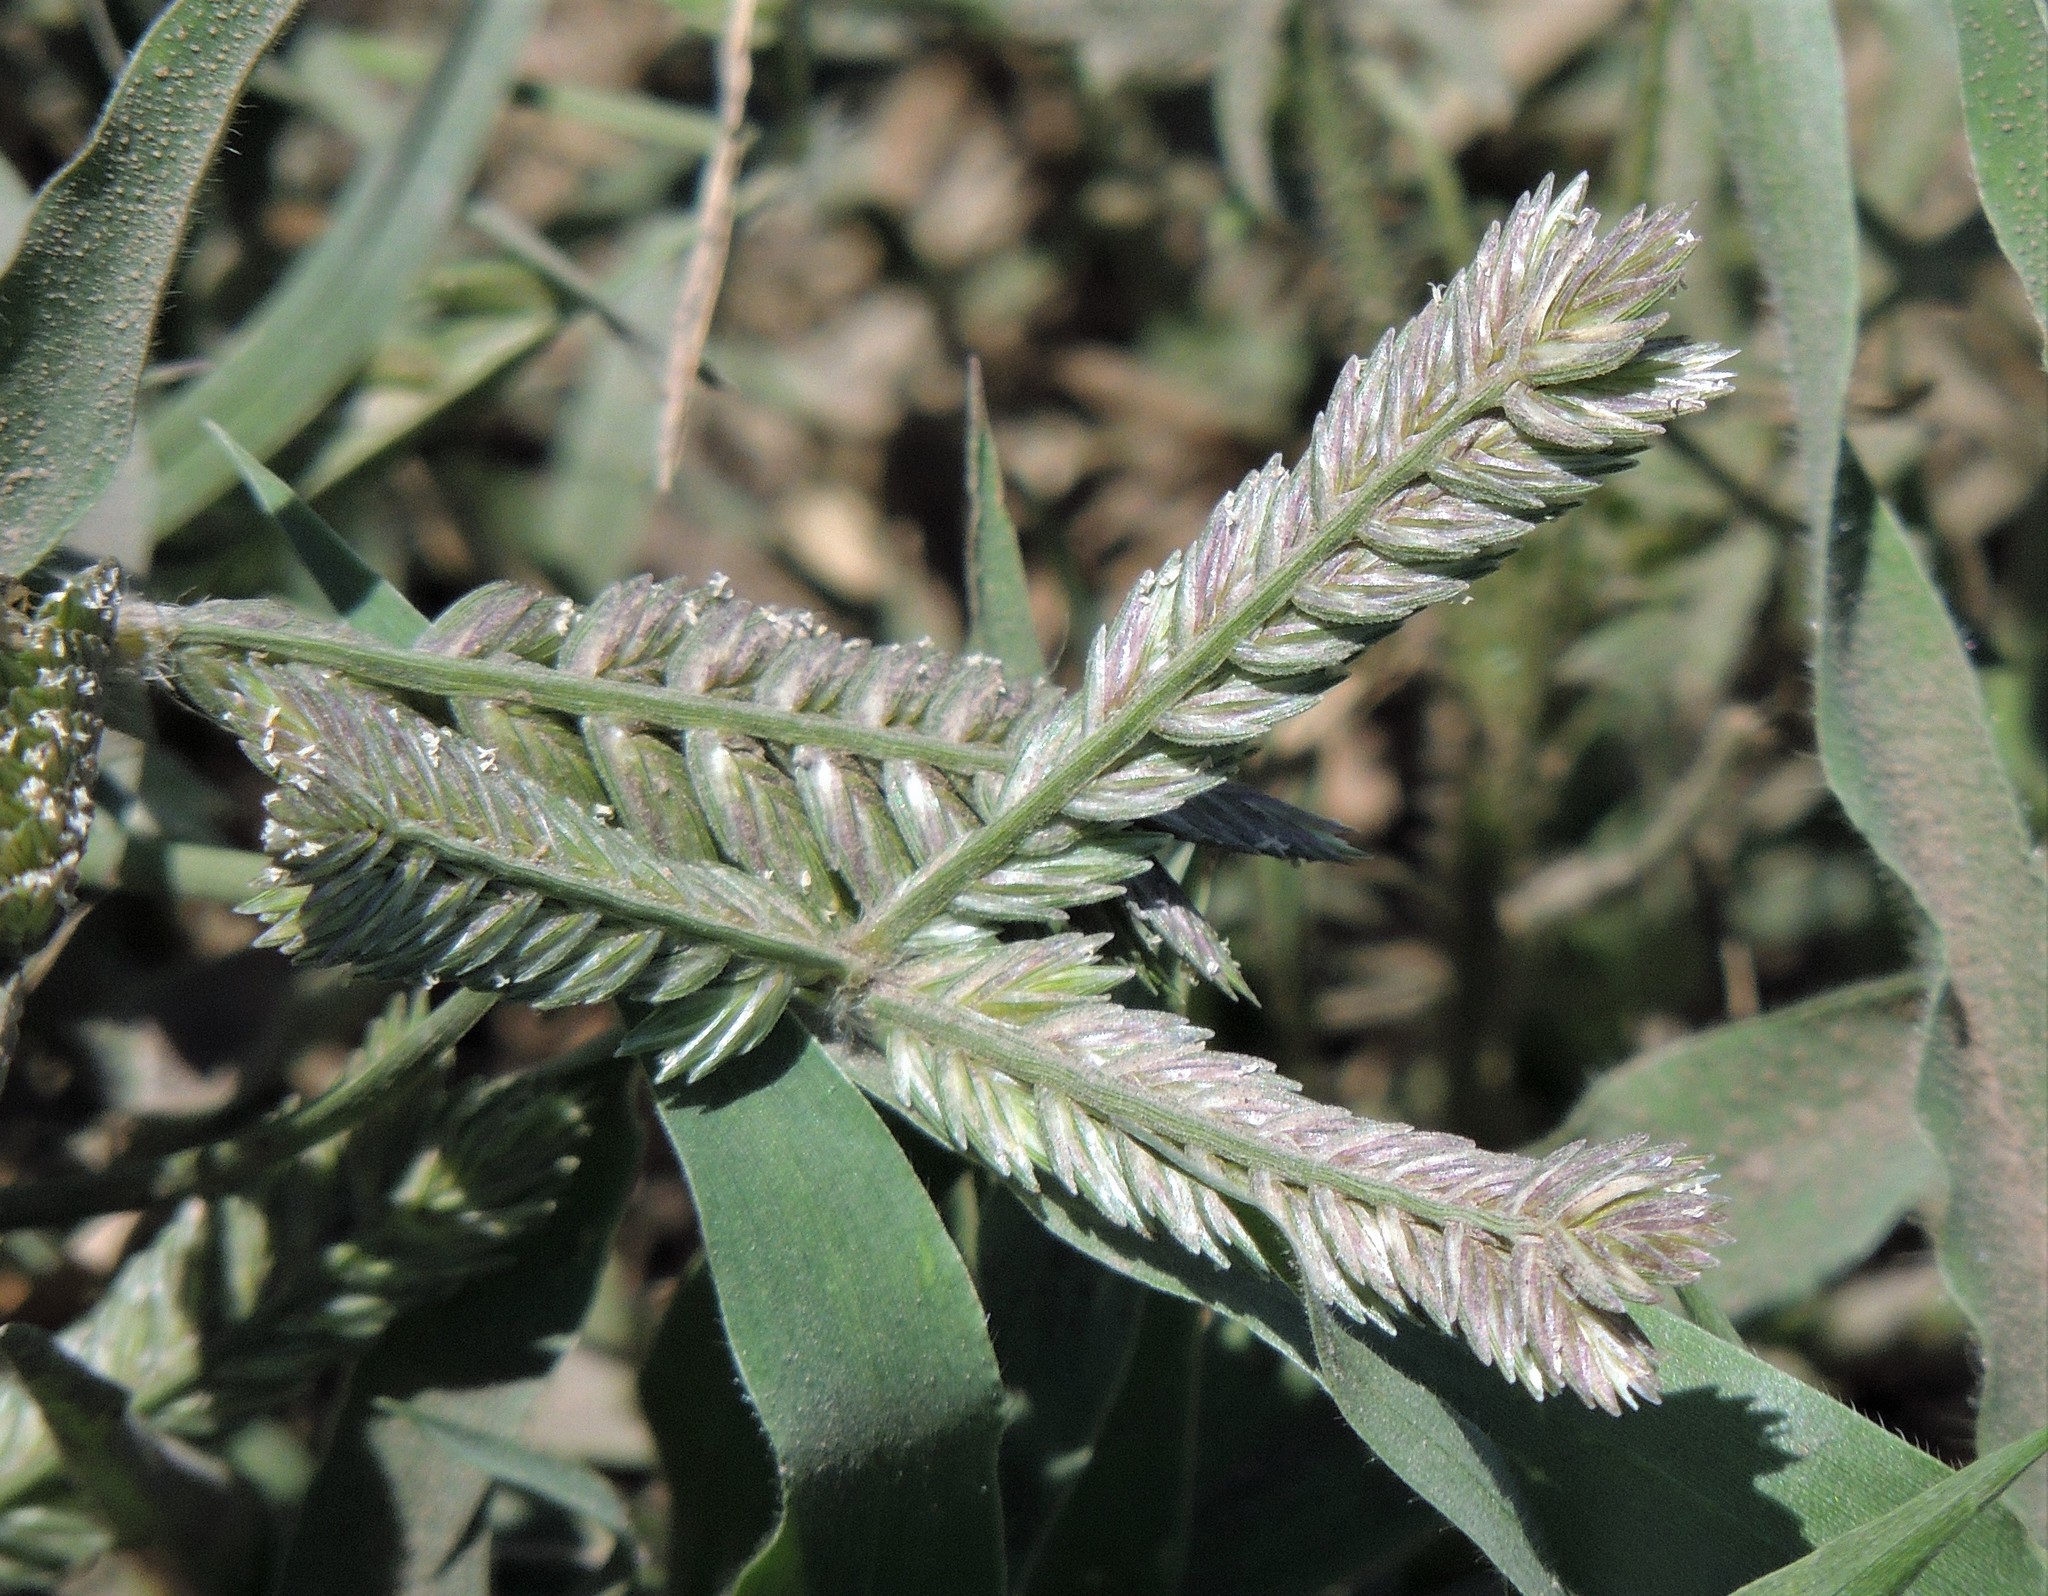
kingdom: Plantae
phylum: Tracheophyta
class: Liliopsida
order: Poales
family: Poaceae
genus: Eleusine
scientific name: Eleusine tristachya
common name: American yard-grass
